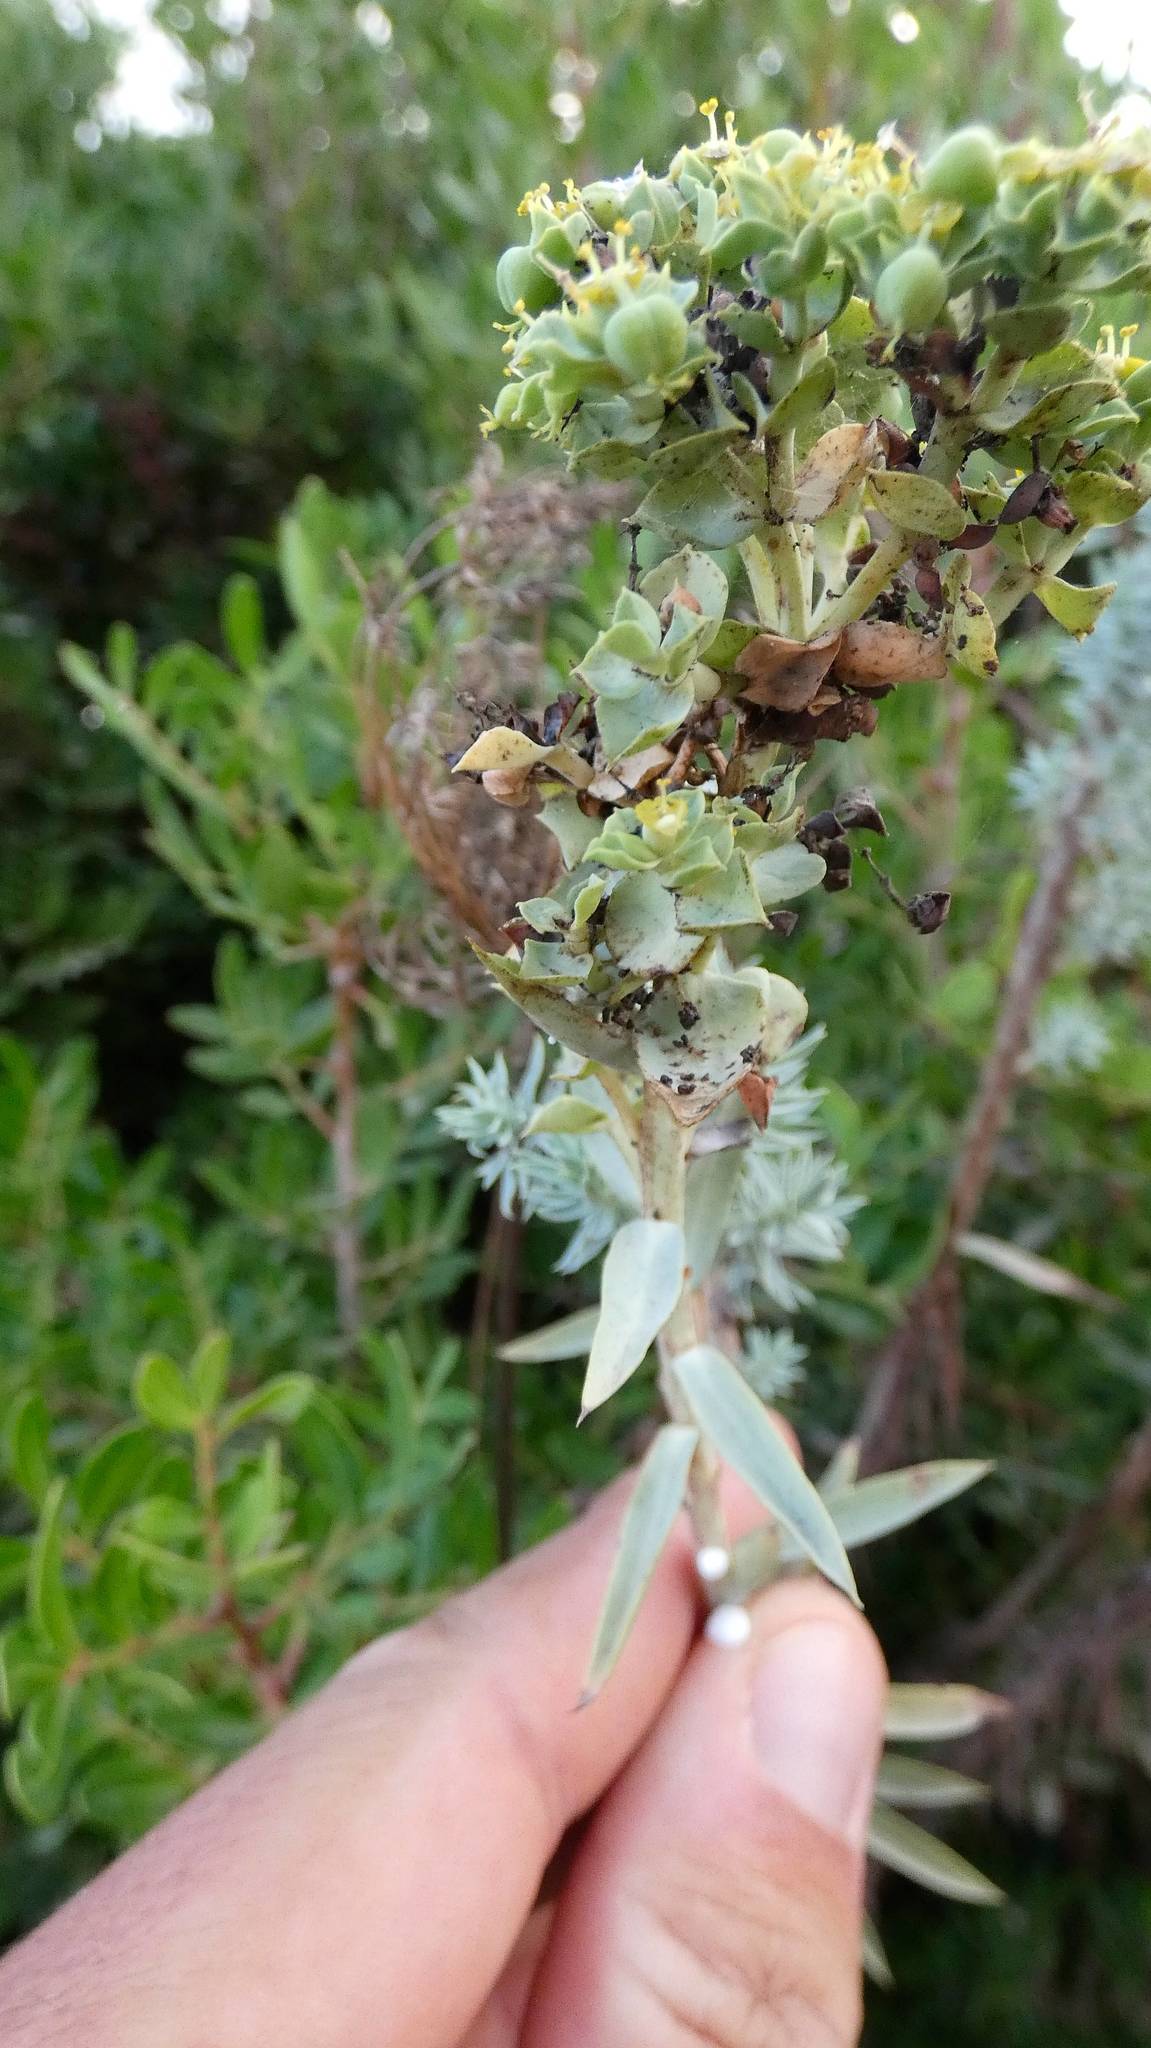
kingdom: Plantae
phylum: Tracheophyta
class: Magnoliopsida
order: Malpighiales
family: Euphorbiaceae
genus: Euphorbia
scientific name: Euphorbia paralias
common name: Sea spurge
